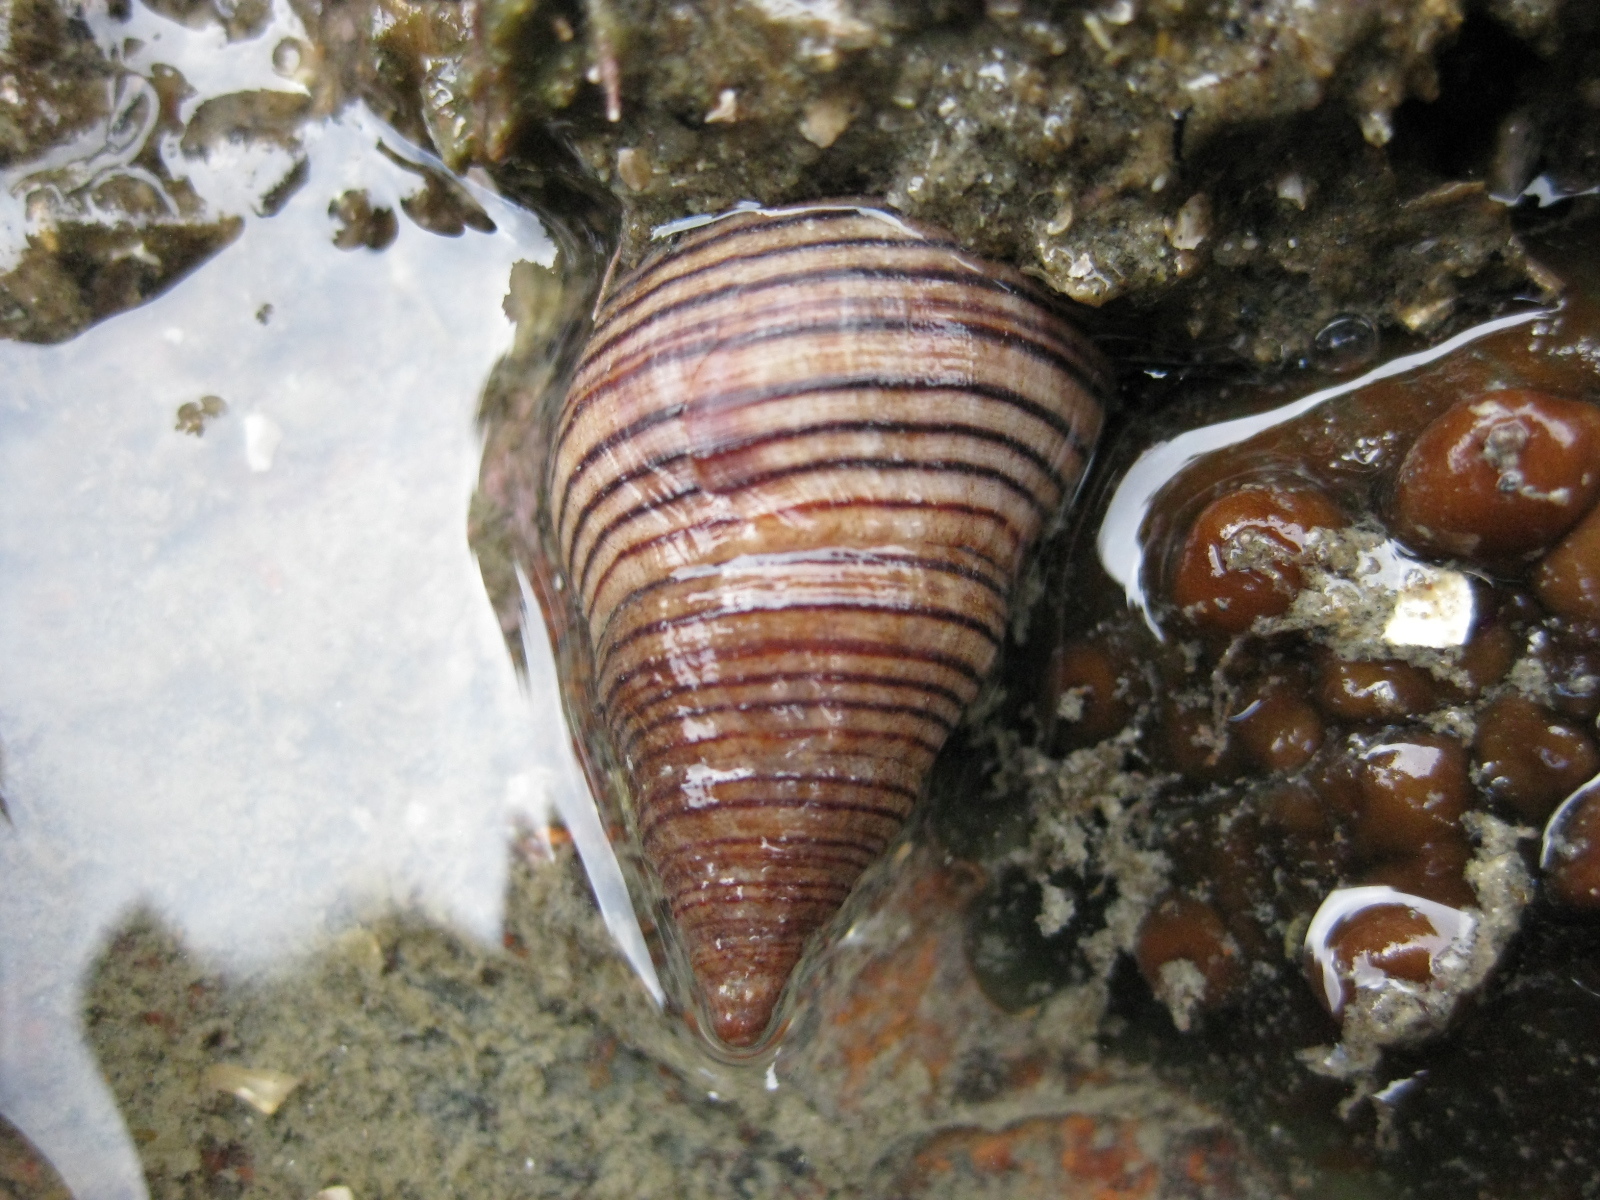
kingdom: Animalia
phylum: Mollusca
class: Gastropoda
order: Neogastropoda
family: Tudiclidae
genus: Buccinulum
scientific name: Buccinulum linea
